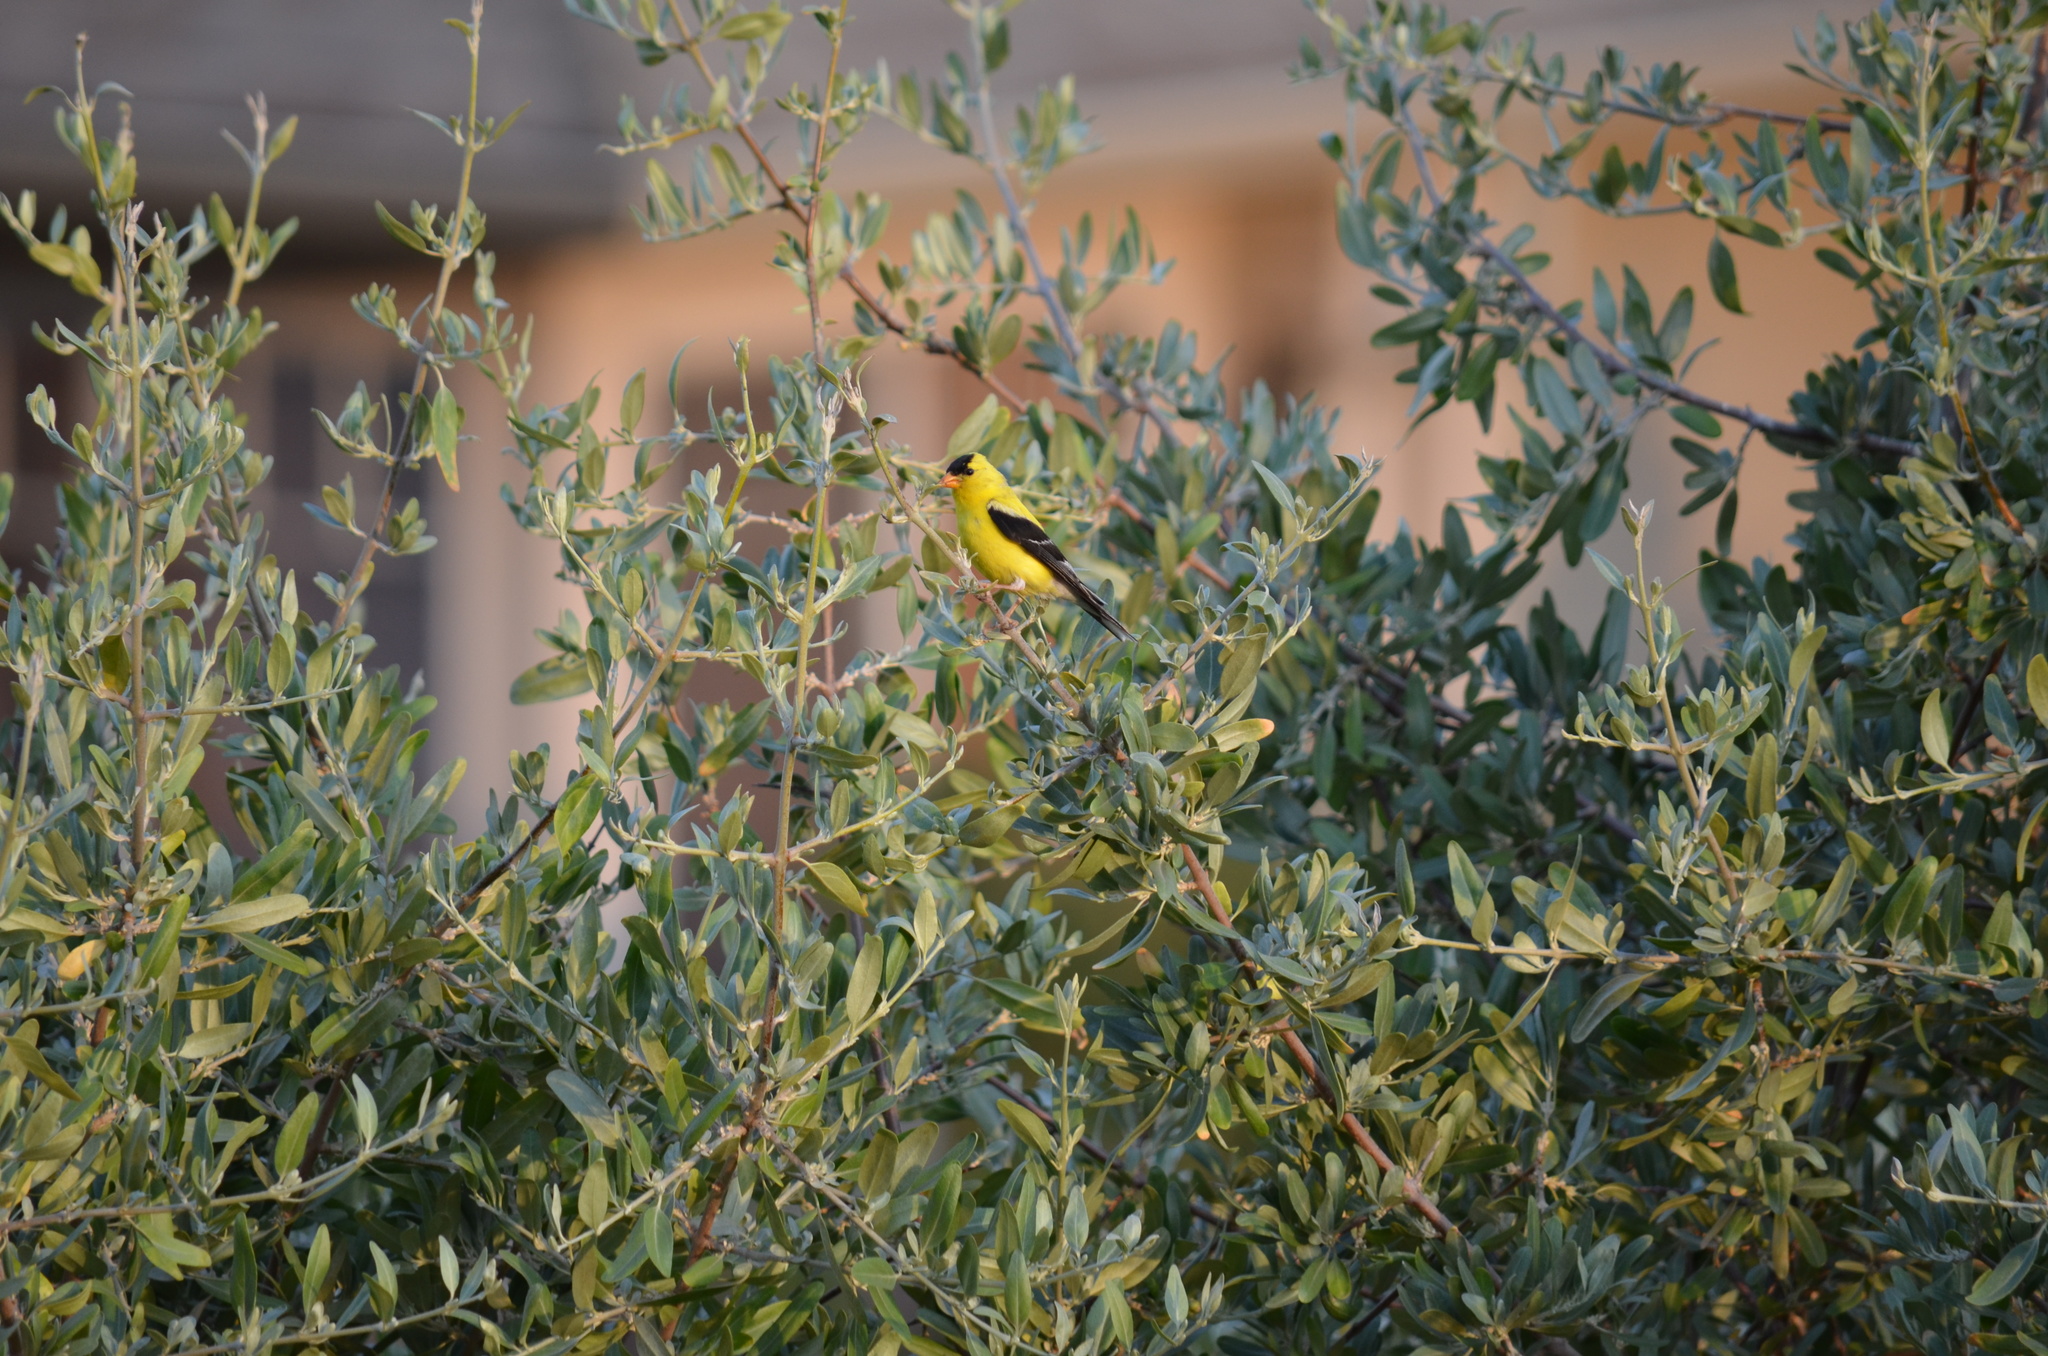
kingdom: Animalia
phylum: Chordata
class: Aves
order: Passeriformes
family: Fringillidae
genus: Spinus
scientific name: Spinus tristis
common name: American goldfinch
